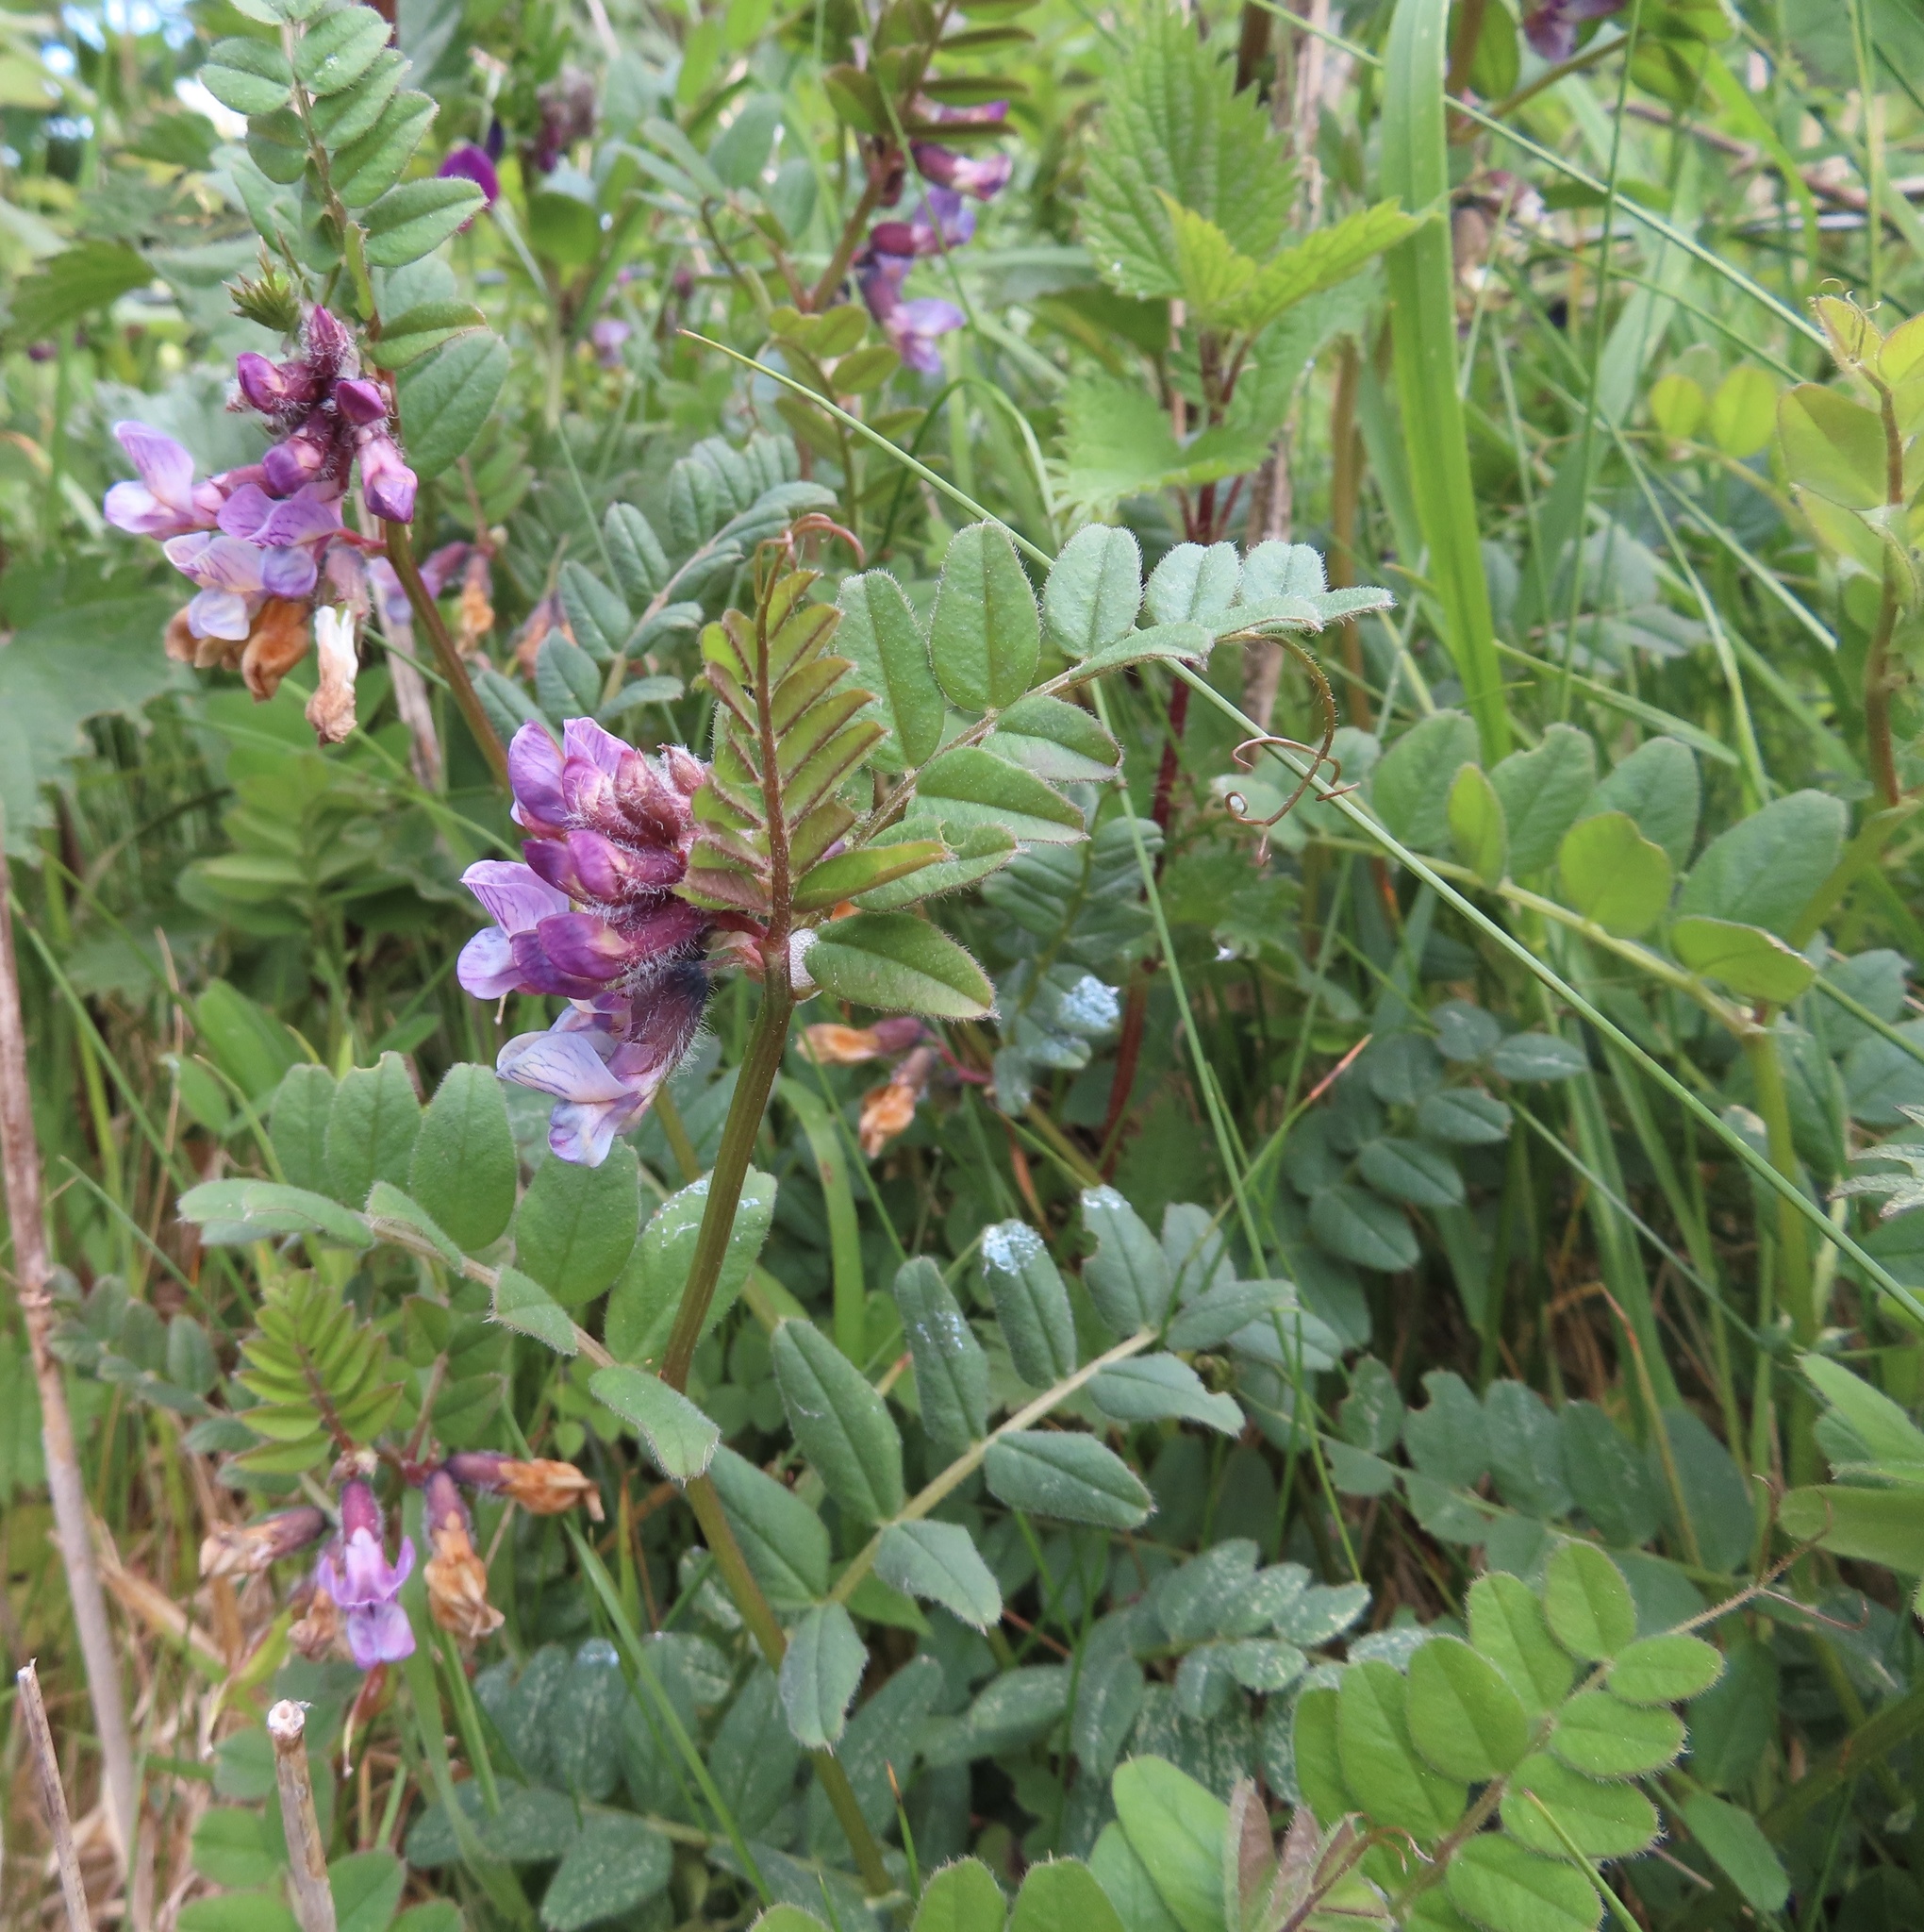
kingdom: Plantae
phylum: Tracheophyta
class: Magnoliopsida
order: Fabales
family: Fabaceae
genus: Vicia
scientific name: Vicia sepium
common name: Bush vetch
